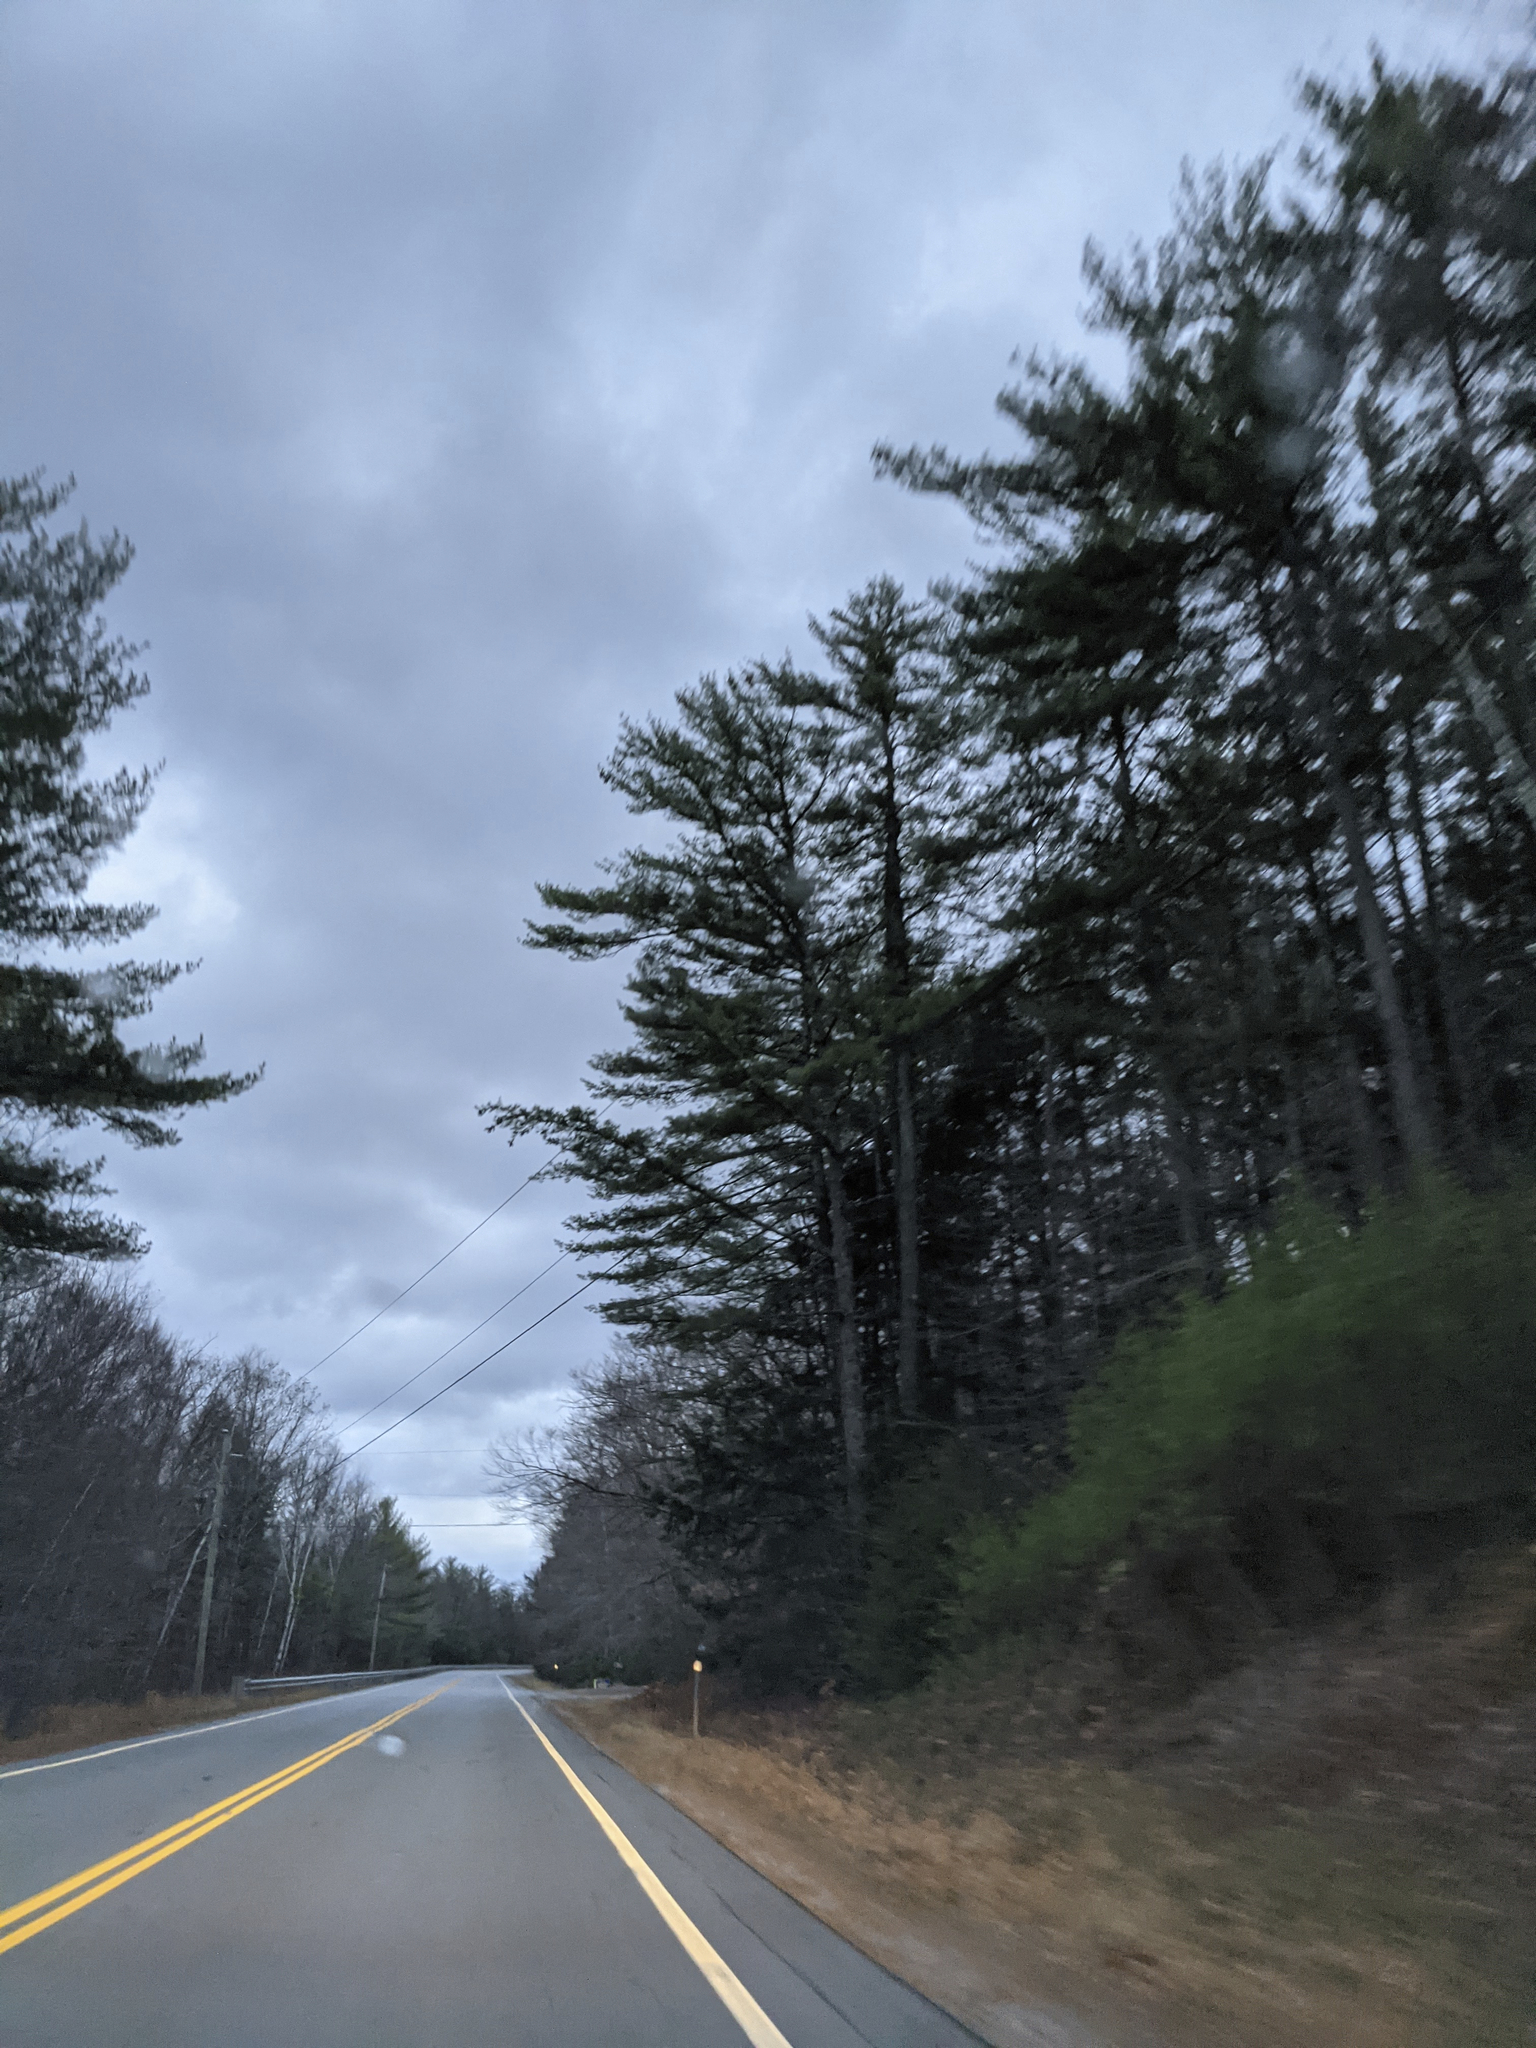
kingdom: Plantae
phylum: Tracheophyta
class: Pinopsida
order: Pinales
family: Pinaceae
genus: Pinus
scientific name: Pinus strobus
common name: Weymouth pine
